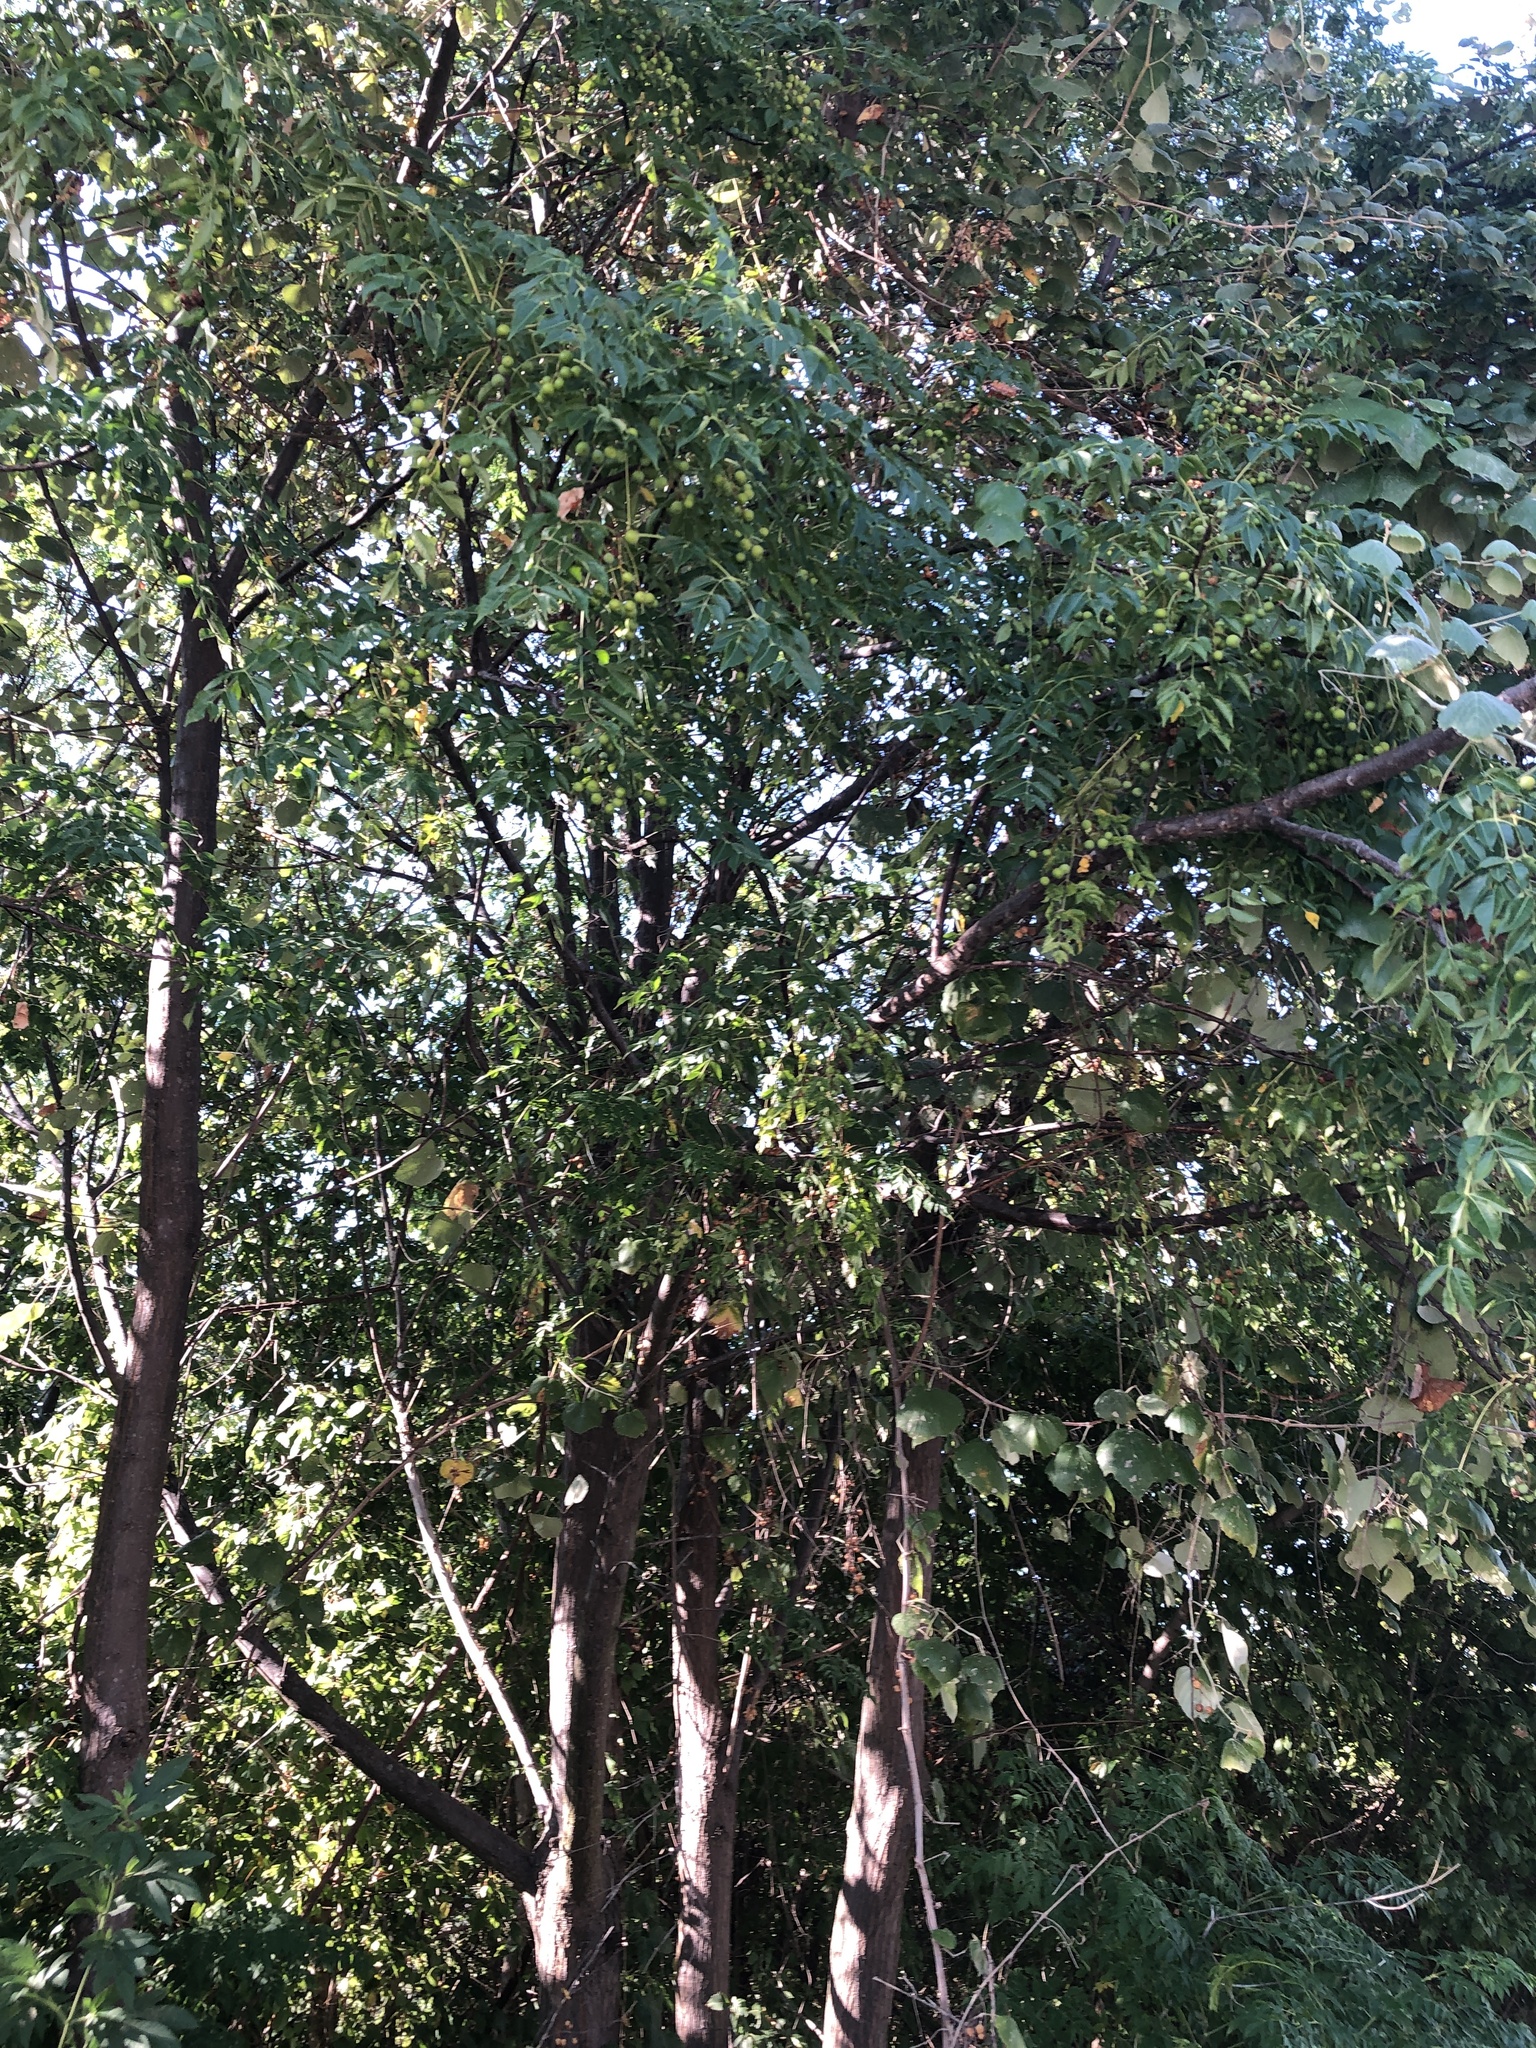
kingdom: Plantae
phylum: Tracheophyta
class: Magnoliopsida
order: Sapindales
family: Meliaceae
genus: Melia
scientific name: Melia azedarach
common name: Chinaberrytree
